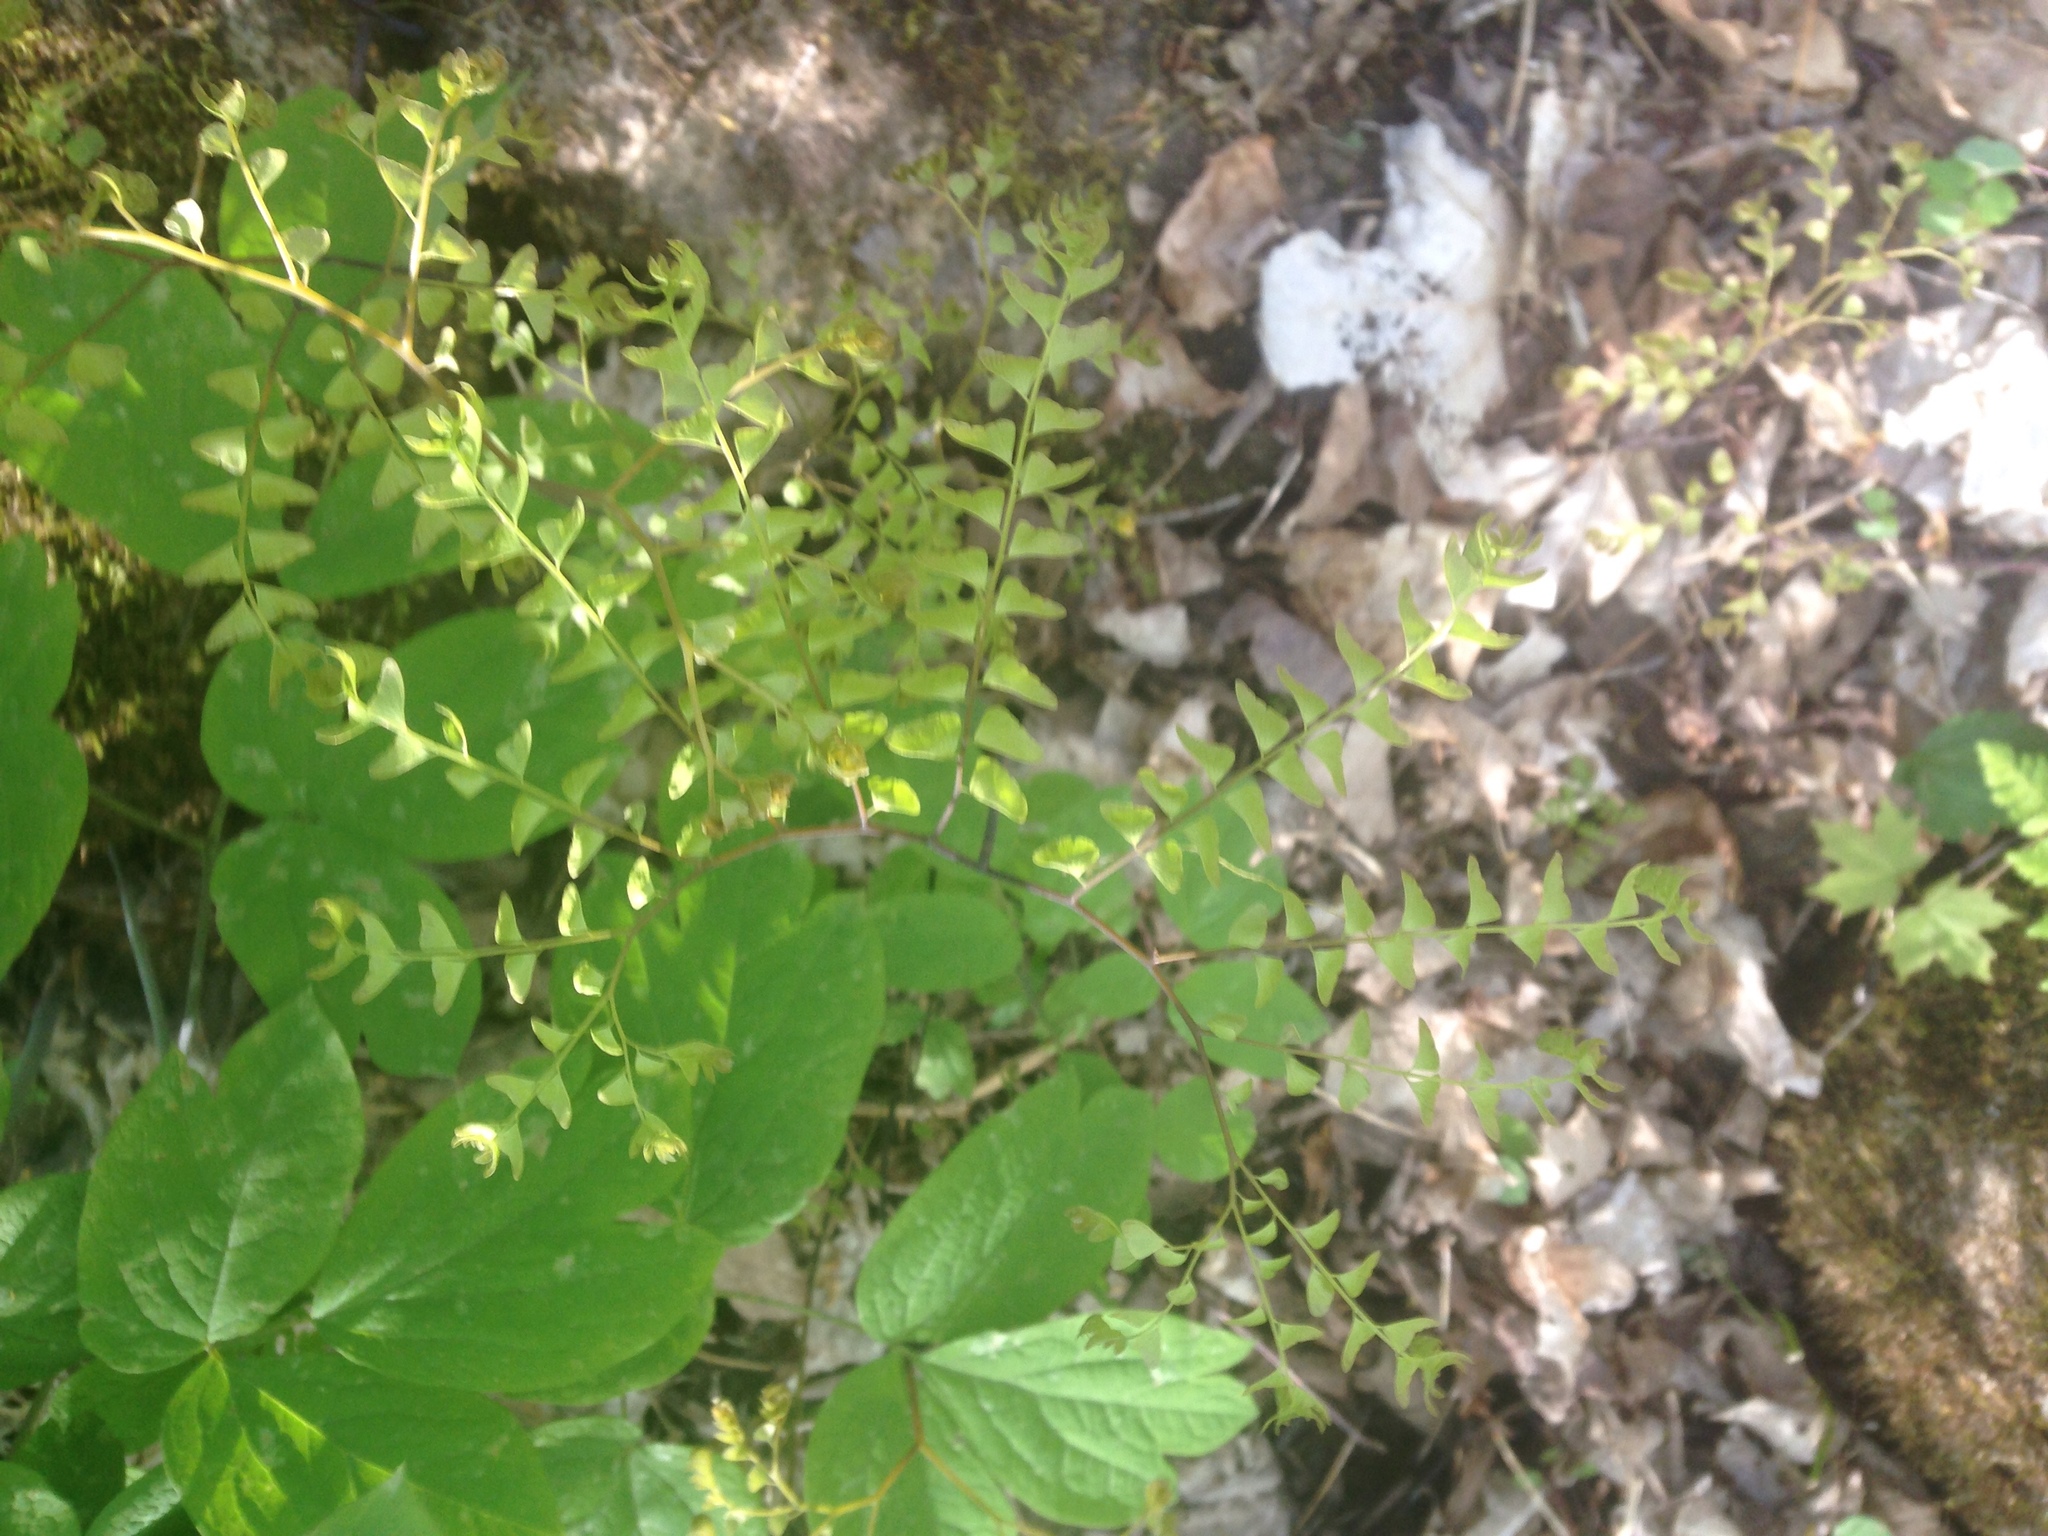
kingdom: Plantae
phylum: Tracheophyta
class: Polypodiopsida
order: Polypodiales
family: Pteridaceae
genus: Adiantum
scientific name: Adiantum pedatum
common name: Five-finger fern
